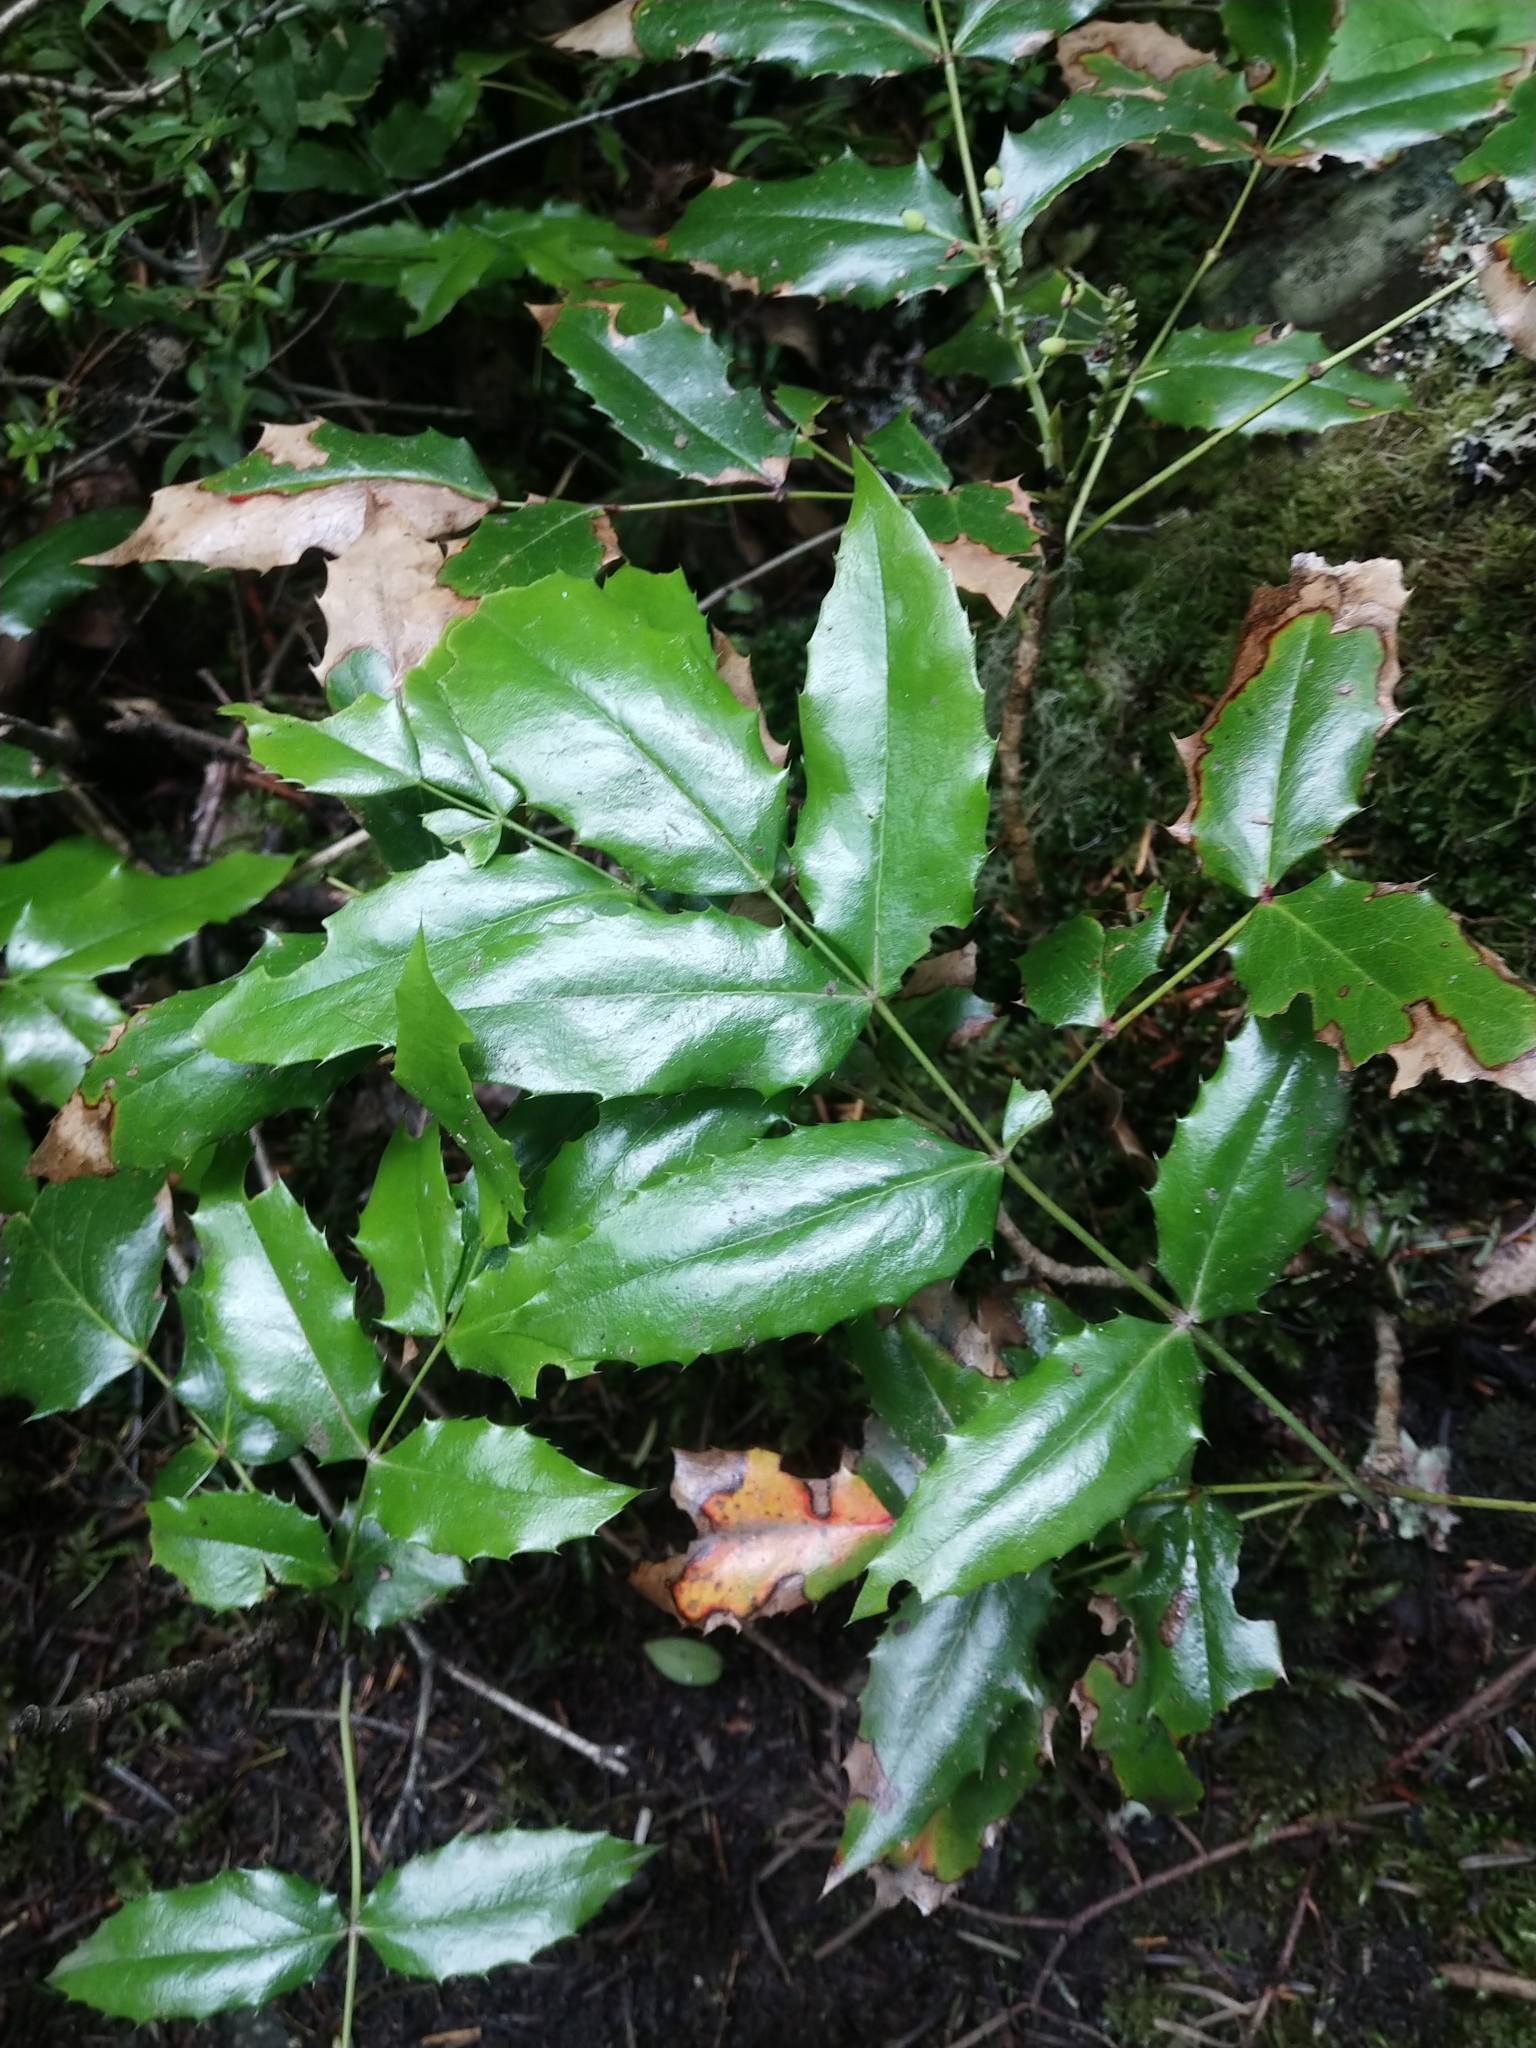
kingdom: Plantae
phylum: Tracheophyta
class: Magnoliopsida
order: Ranunculales
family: Berberidaceae
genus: Mahonia
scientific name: Mahonia aquifolium
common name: Oregon-grape
